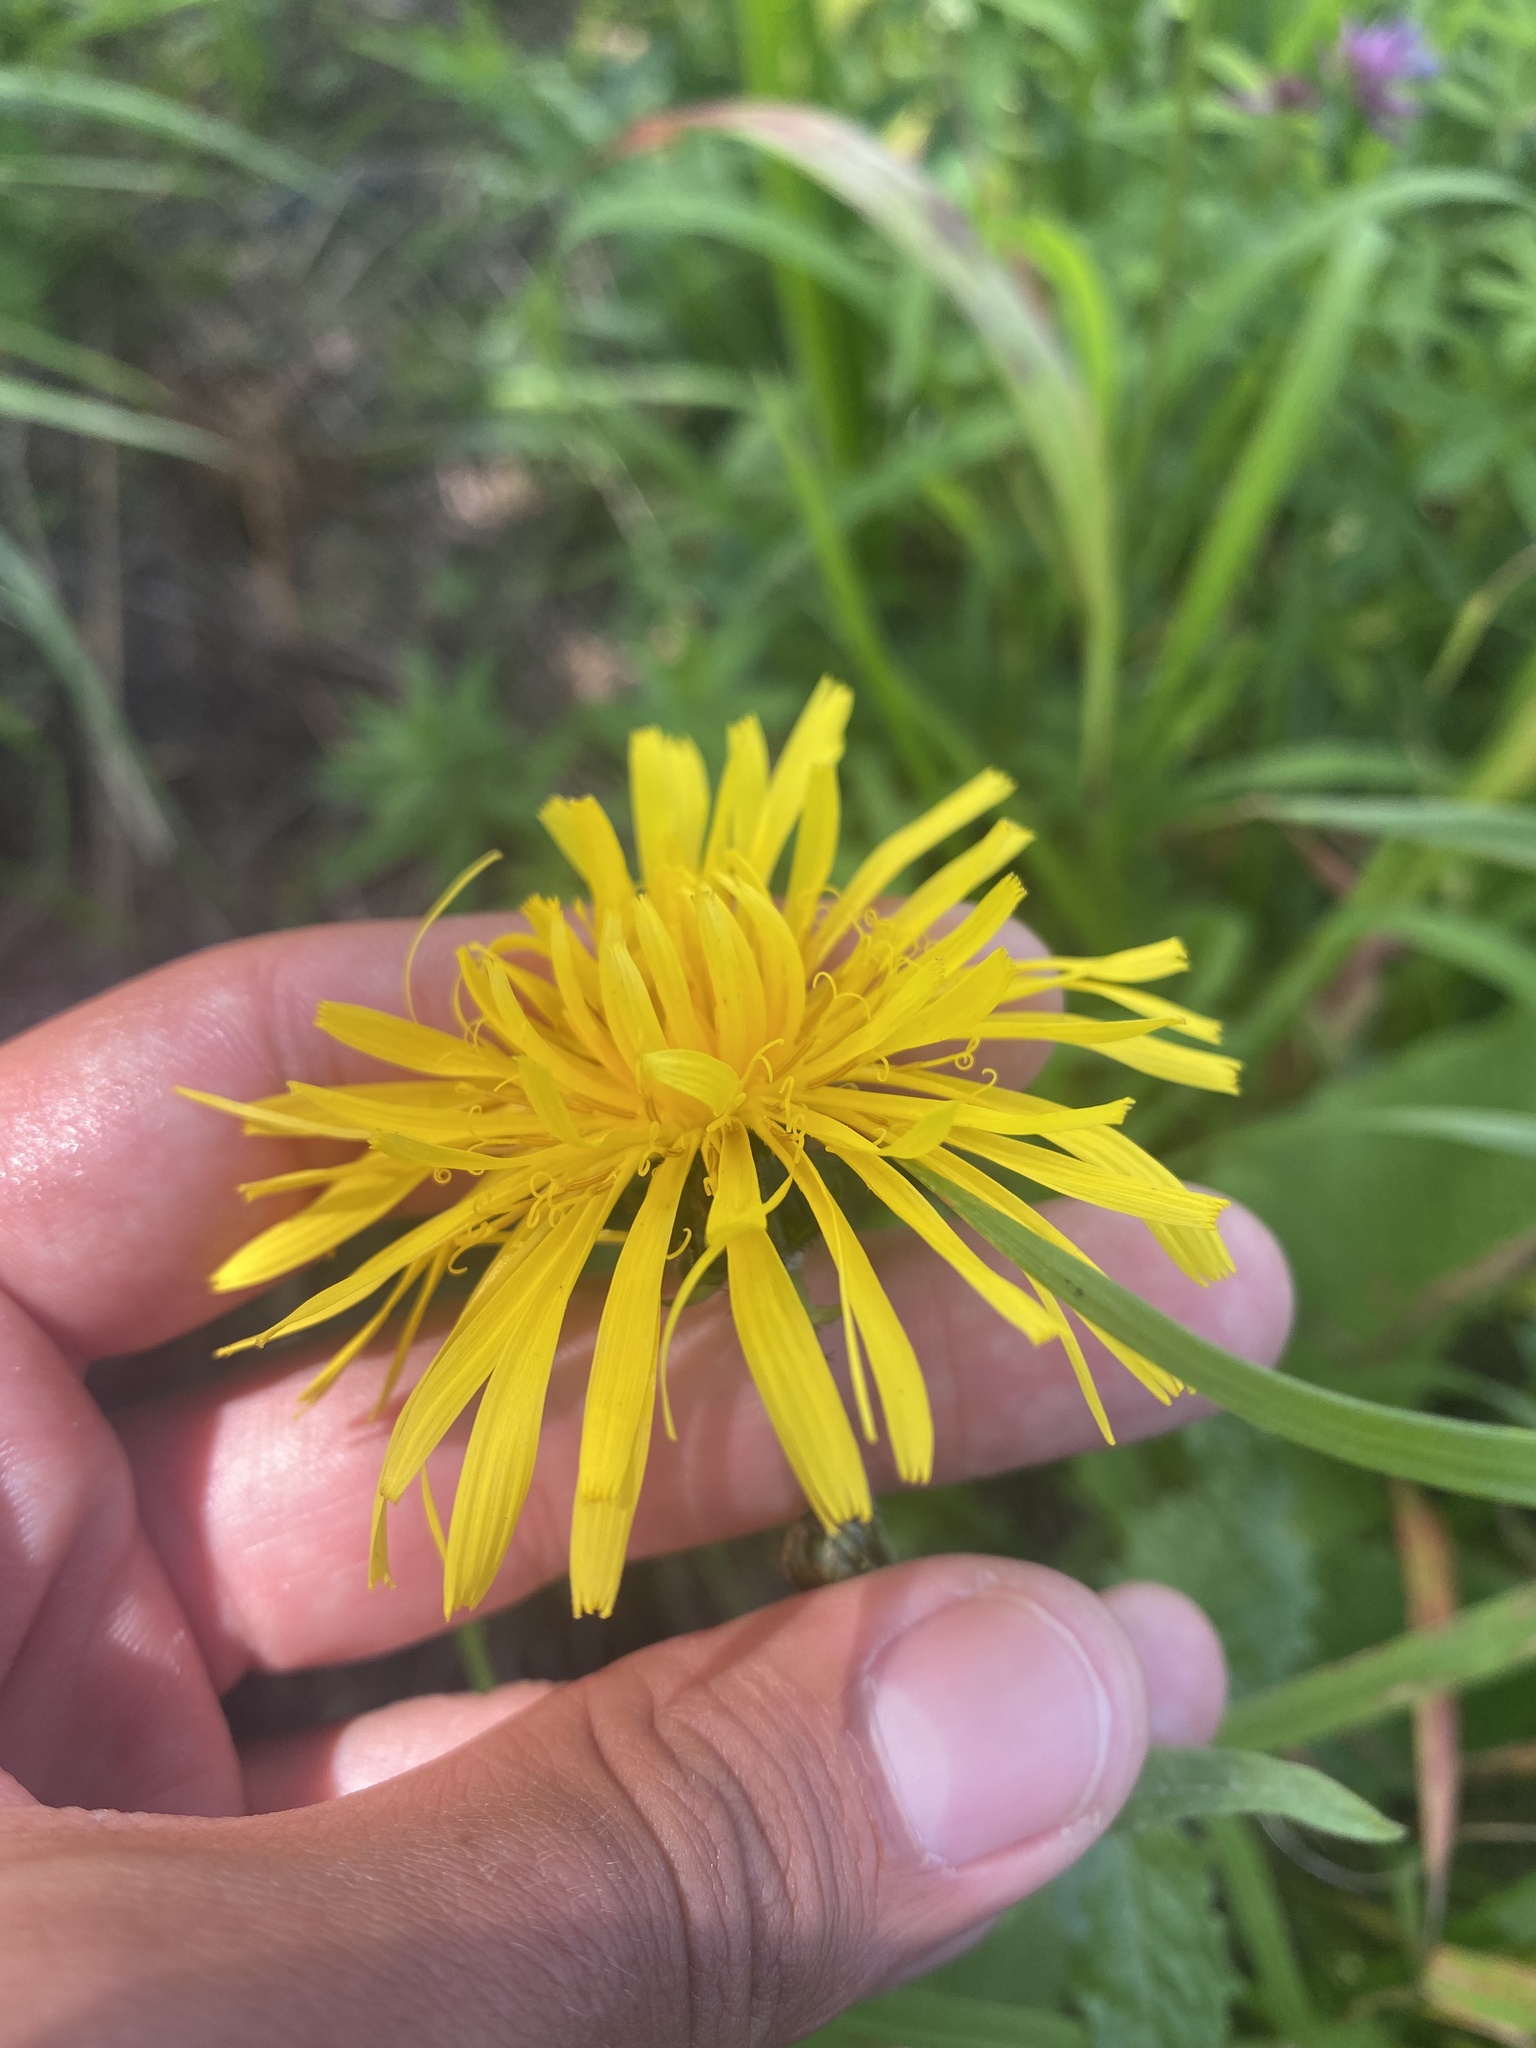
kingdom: Plantae
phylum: Tracheophyta
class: Magnoliopsida
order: Asterales
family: Asteraceae
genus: Crepis
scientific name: Crepis sibirica
